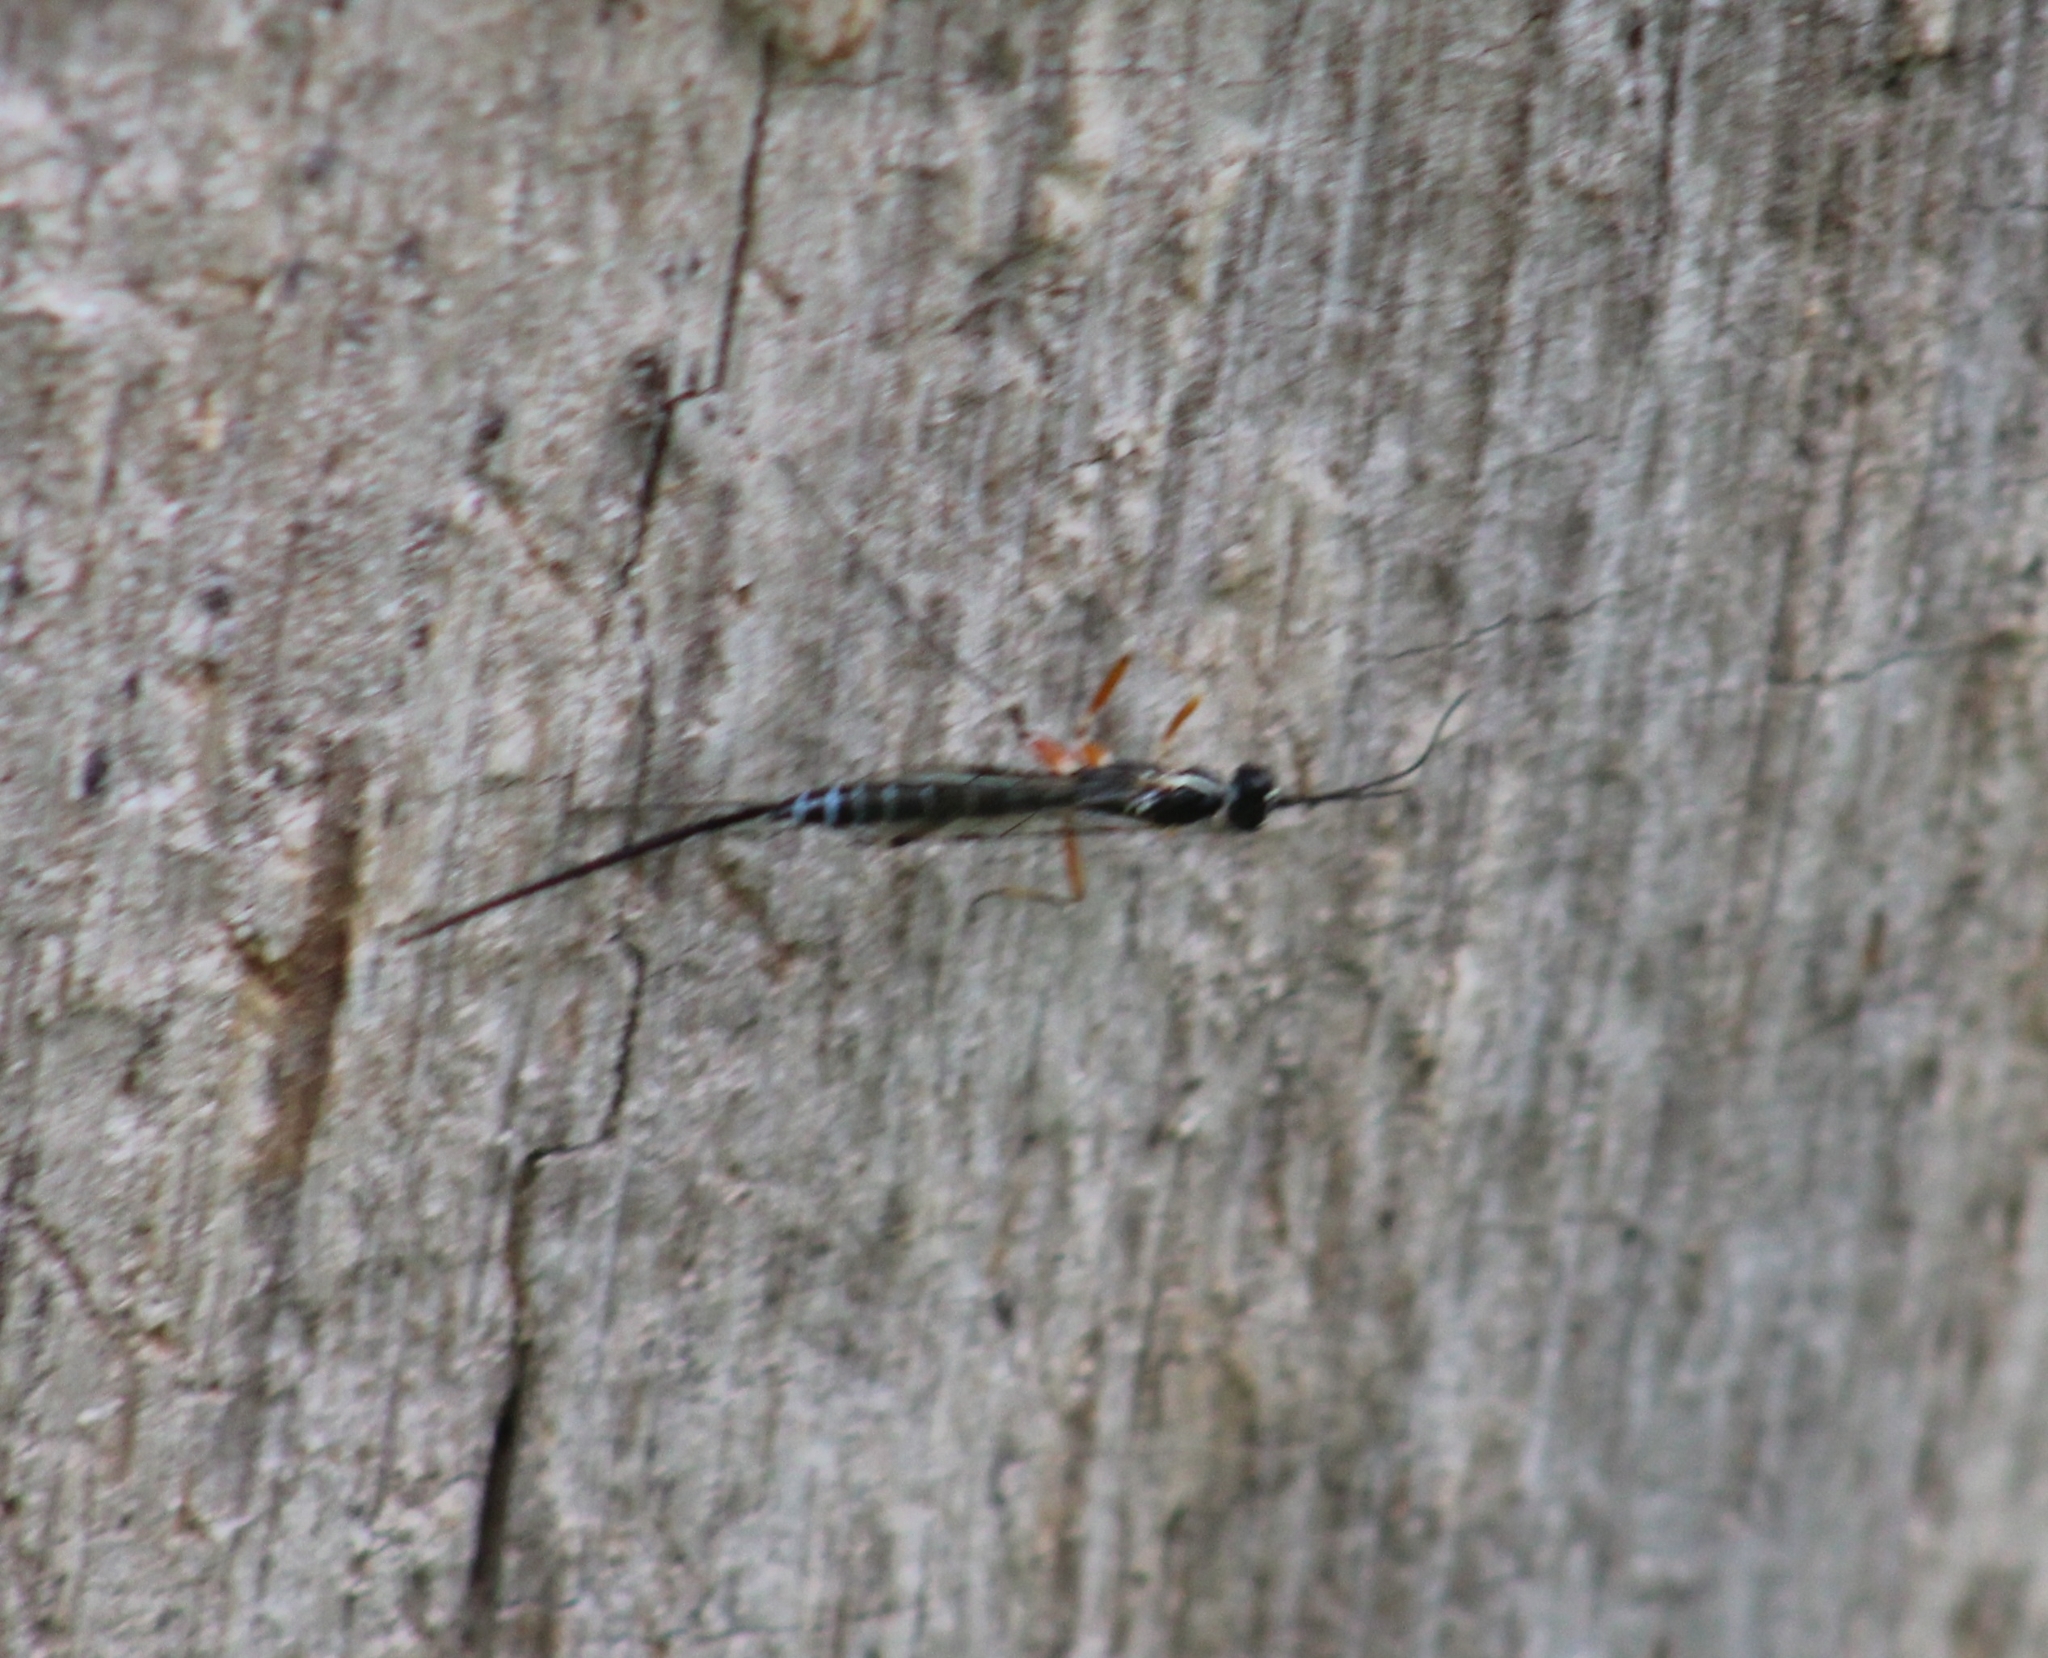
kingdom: Animalia
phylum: Arthropoda
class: Insecta
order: Hymenoptera
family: Ichneumonidae
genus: Podoschistus
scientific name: Podoschistus vittifrons
